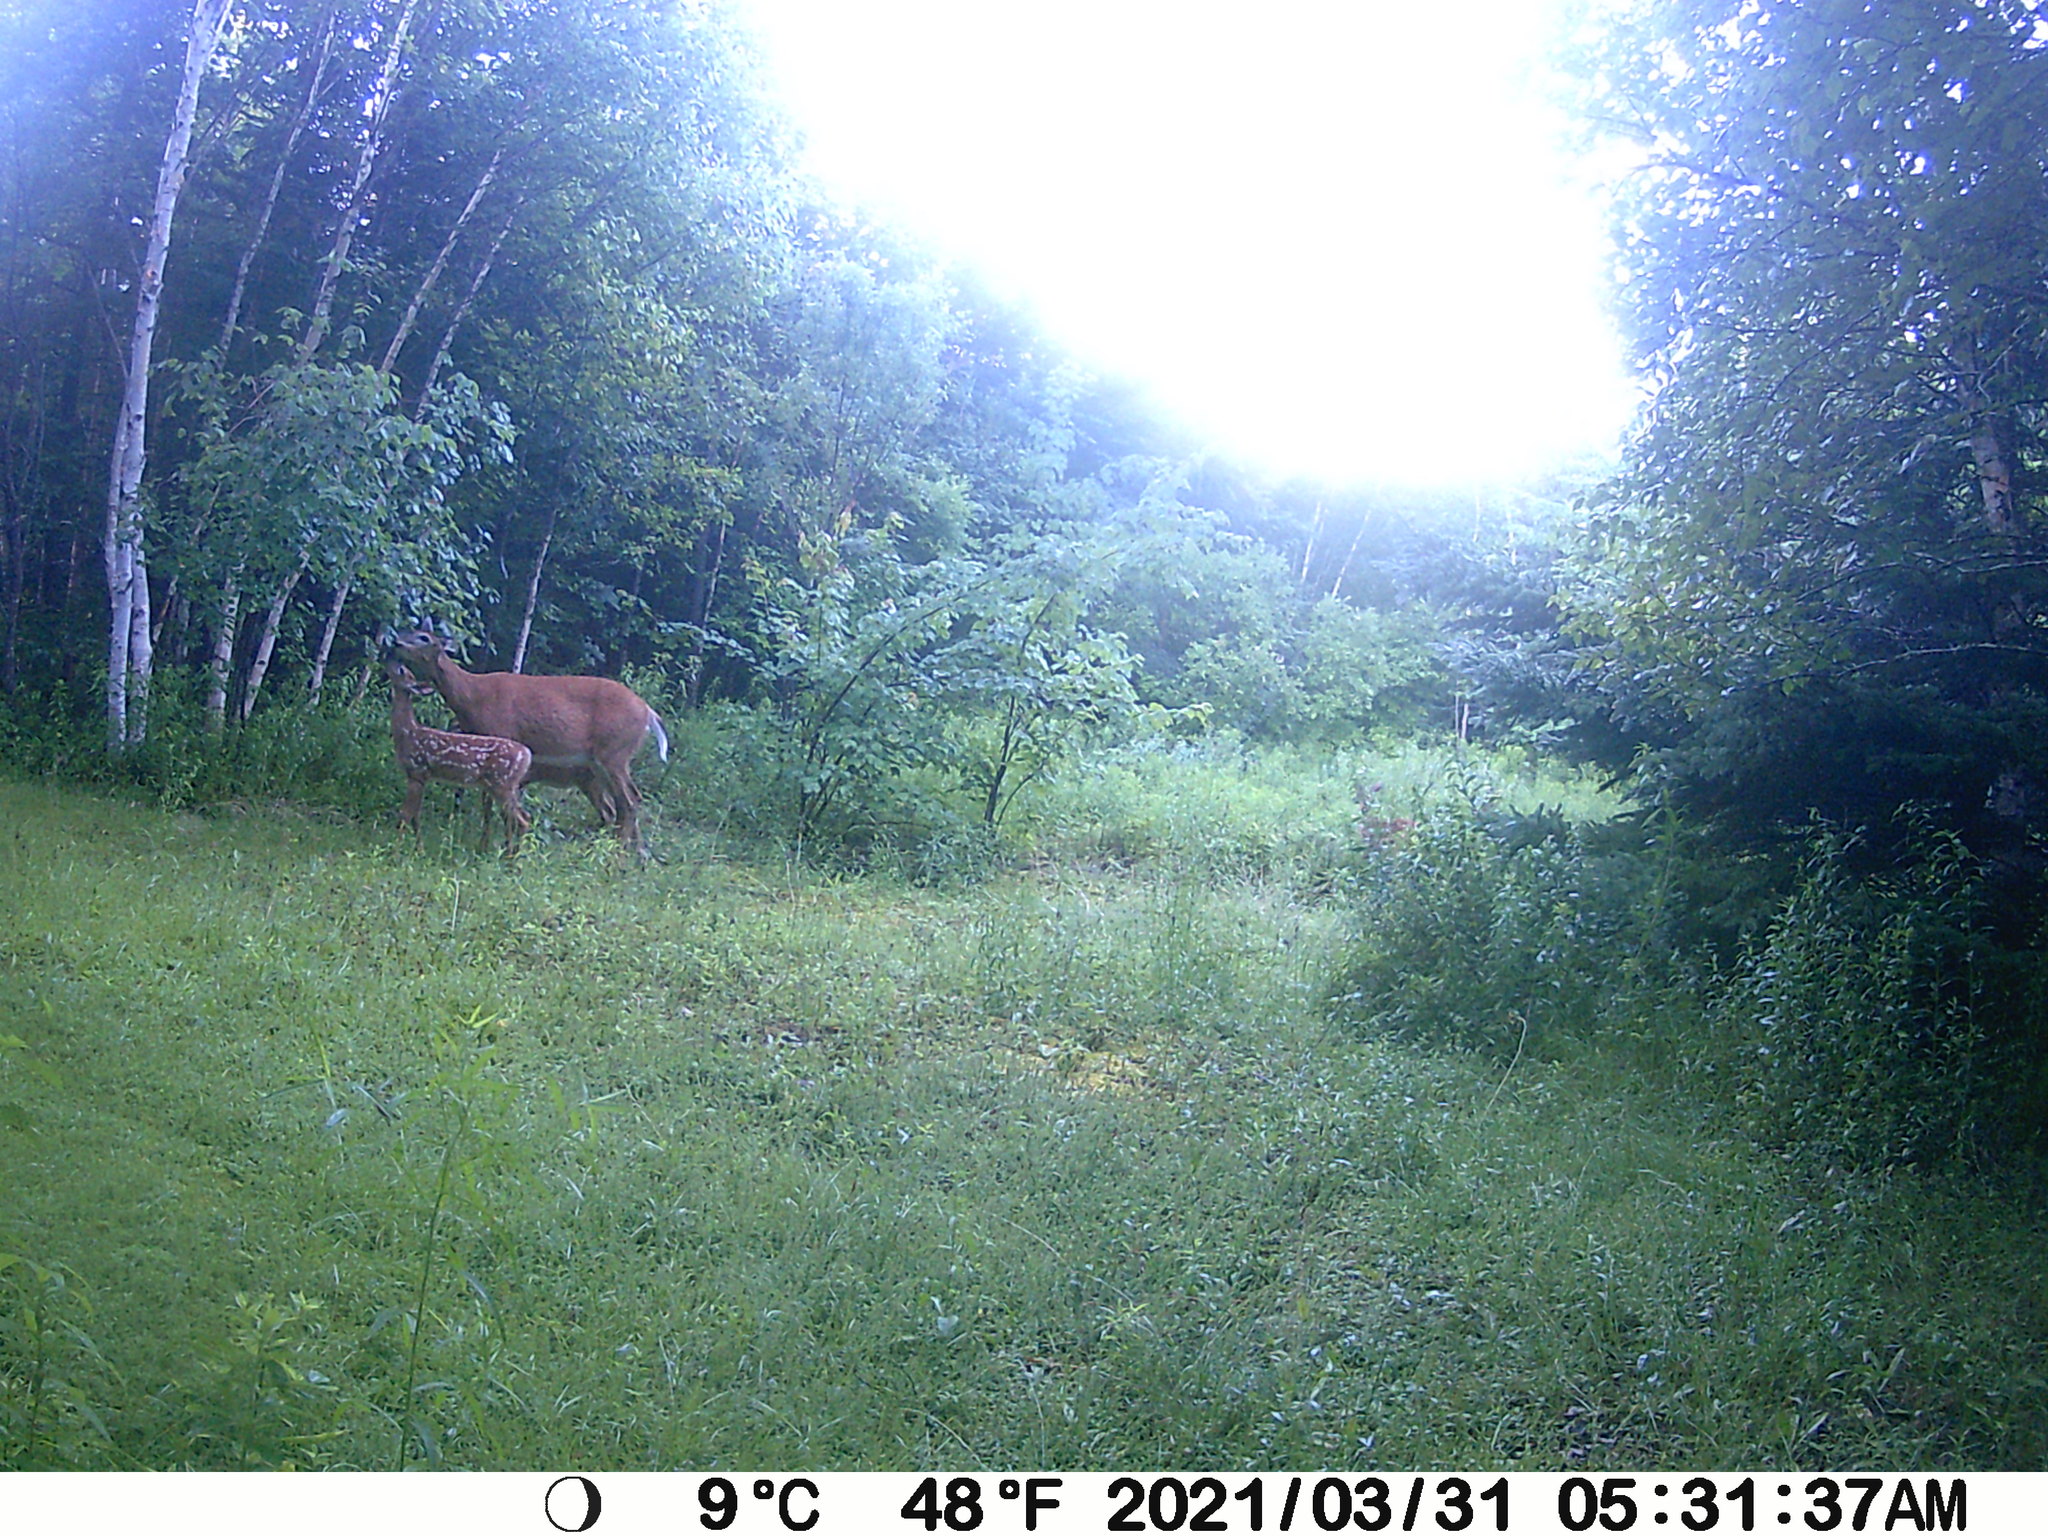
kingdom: Animalia
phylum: Chordata
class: Mammalia
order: Artiodactyla
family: Cervidae
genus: Odocoileus
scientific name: Odocoileus virginianus
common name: White-tailed deer
